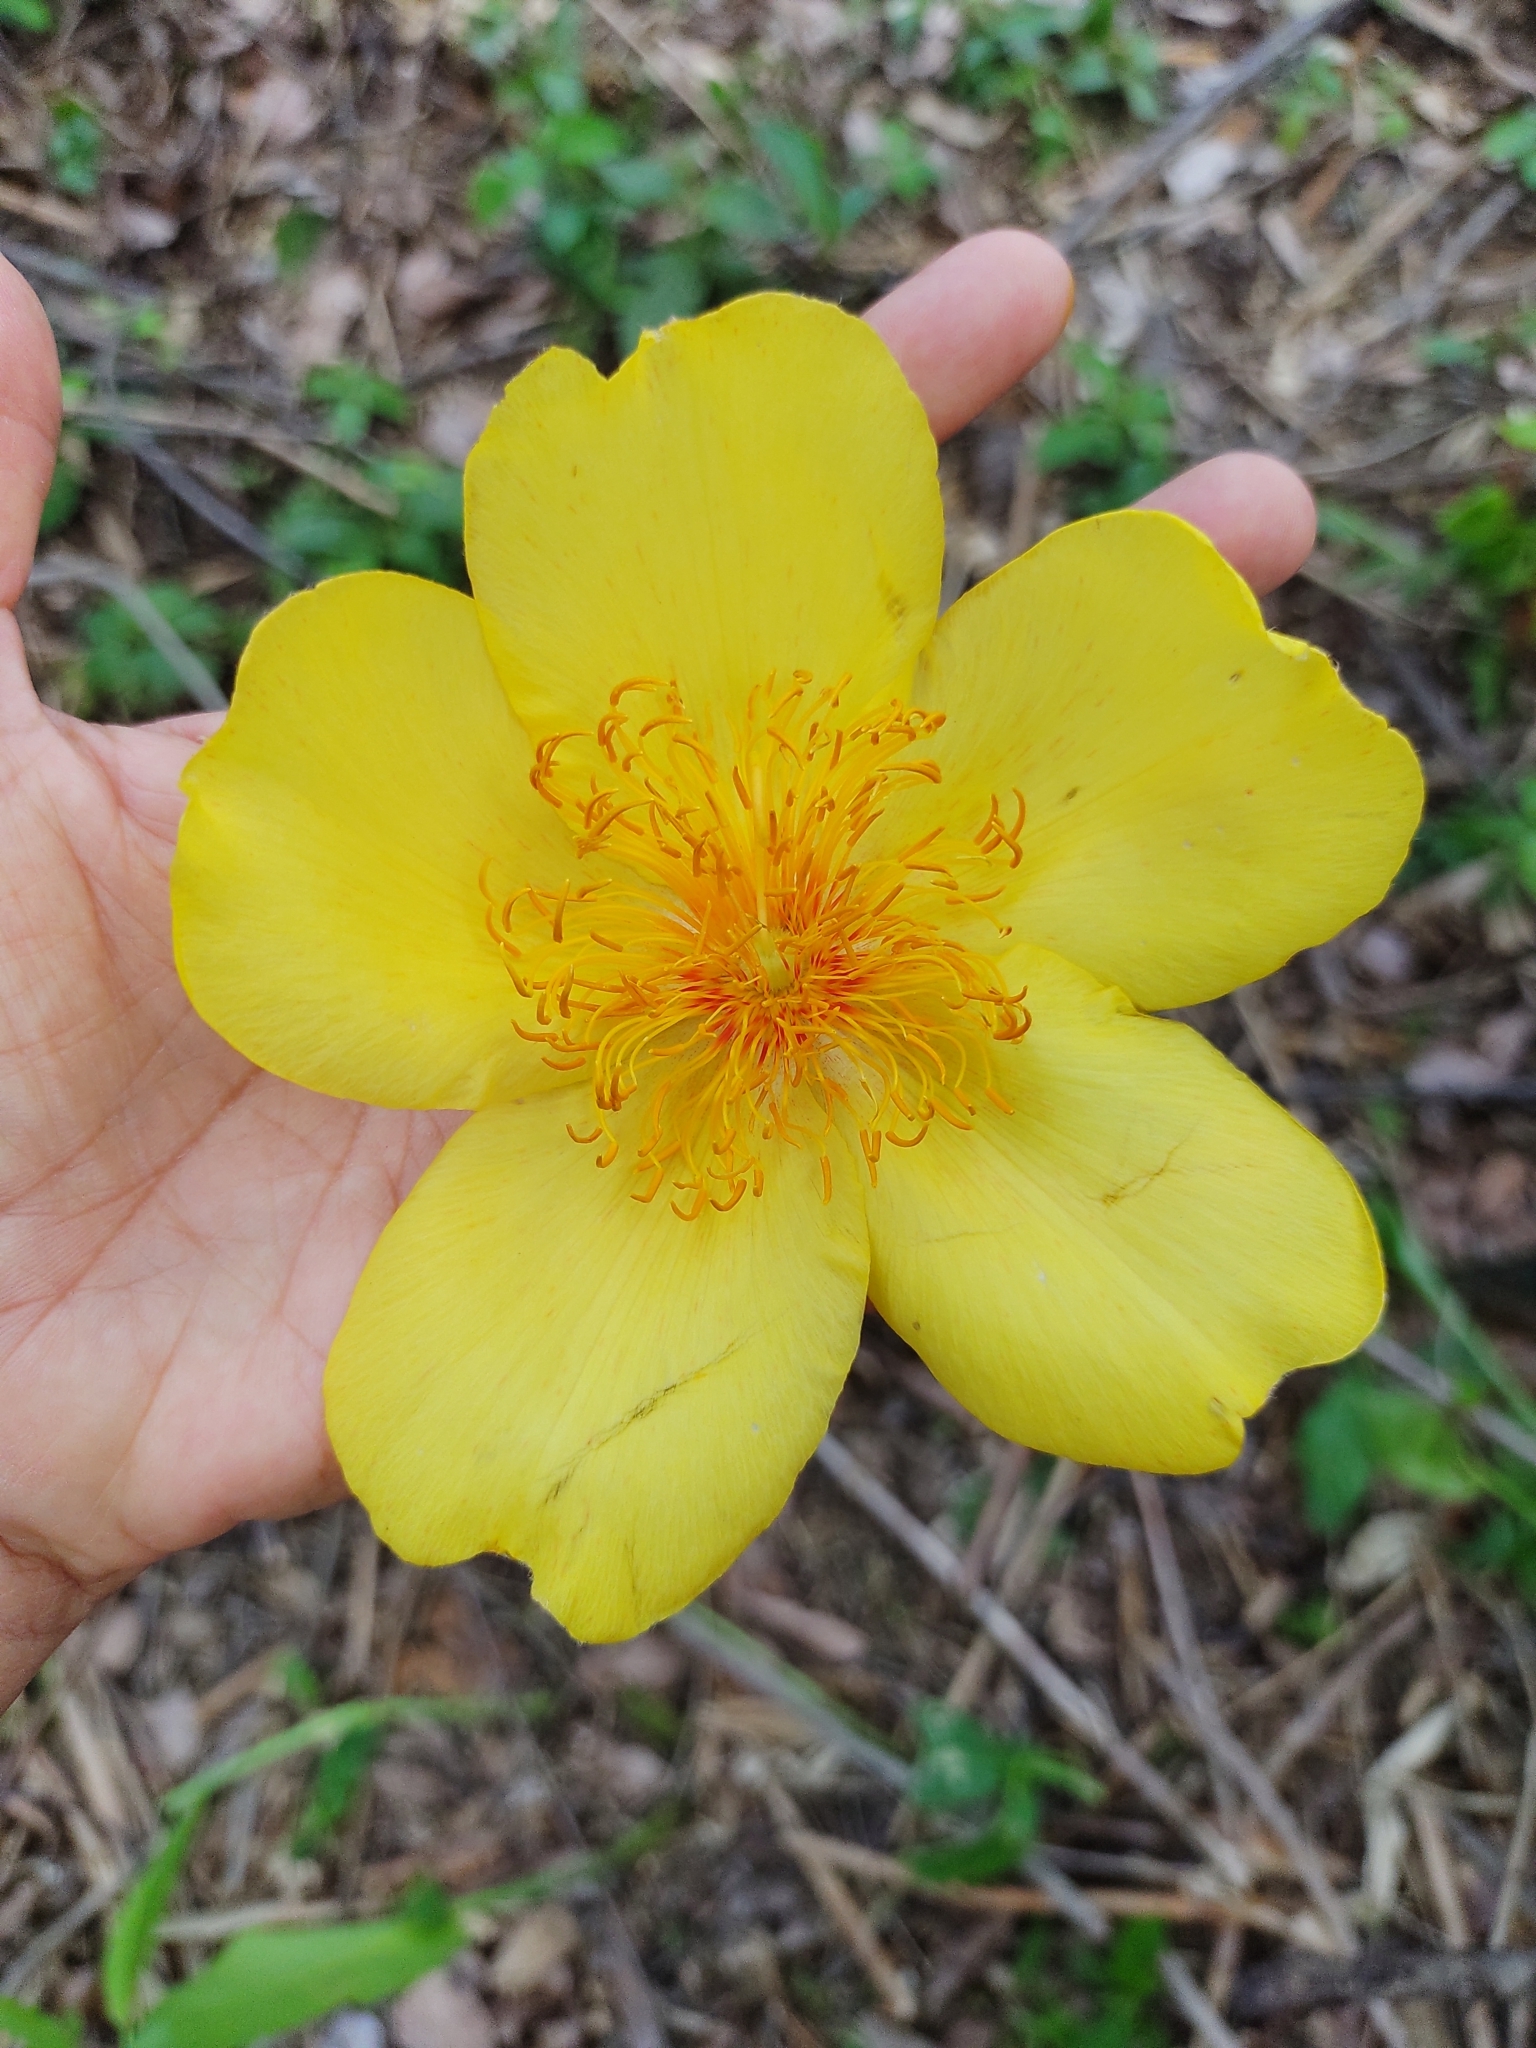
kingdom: Plantae
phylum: Tracheophyta
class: Magnoliopsida
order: Malvales
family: Cochlospermaceae
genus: Cochlospermum
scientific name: Cochlospermum vitifolium
